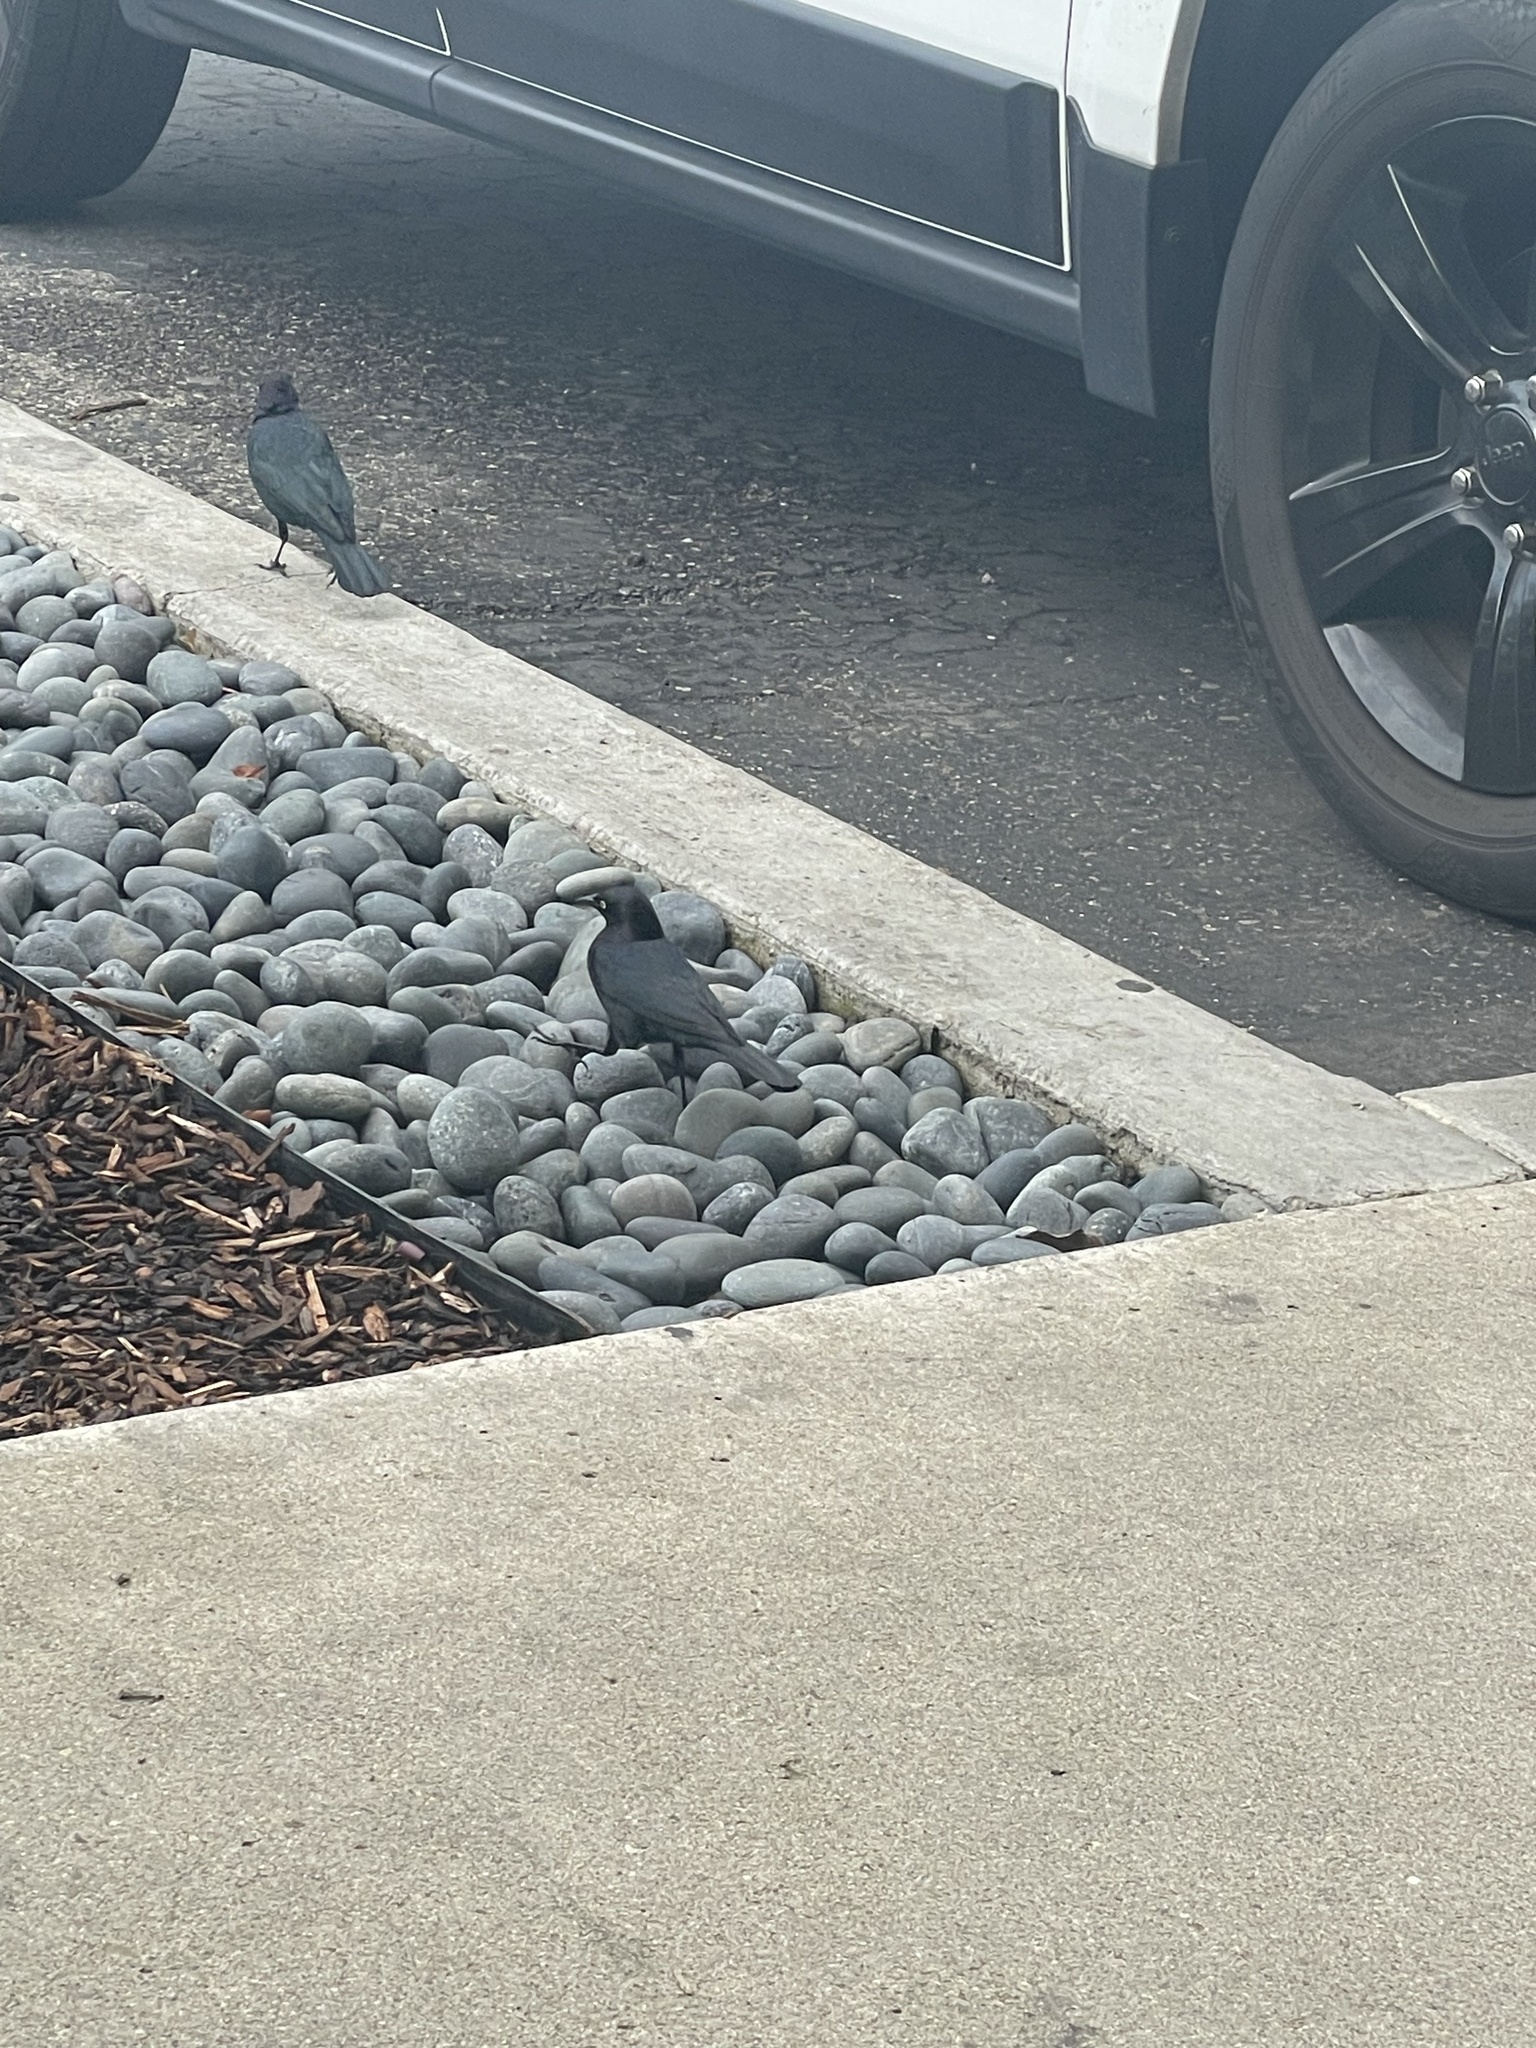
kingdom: Animalia
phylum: Chordata
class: Aves
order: Passeriformes
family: Icteridae
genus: Euphagus
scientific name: Euphagus cyanocephalus
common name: Brewer's blackbird
